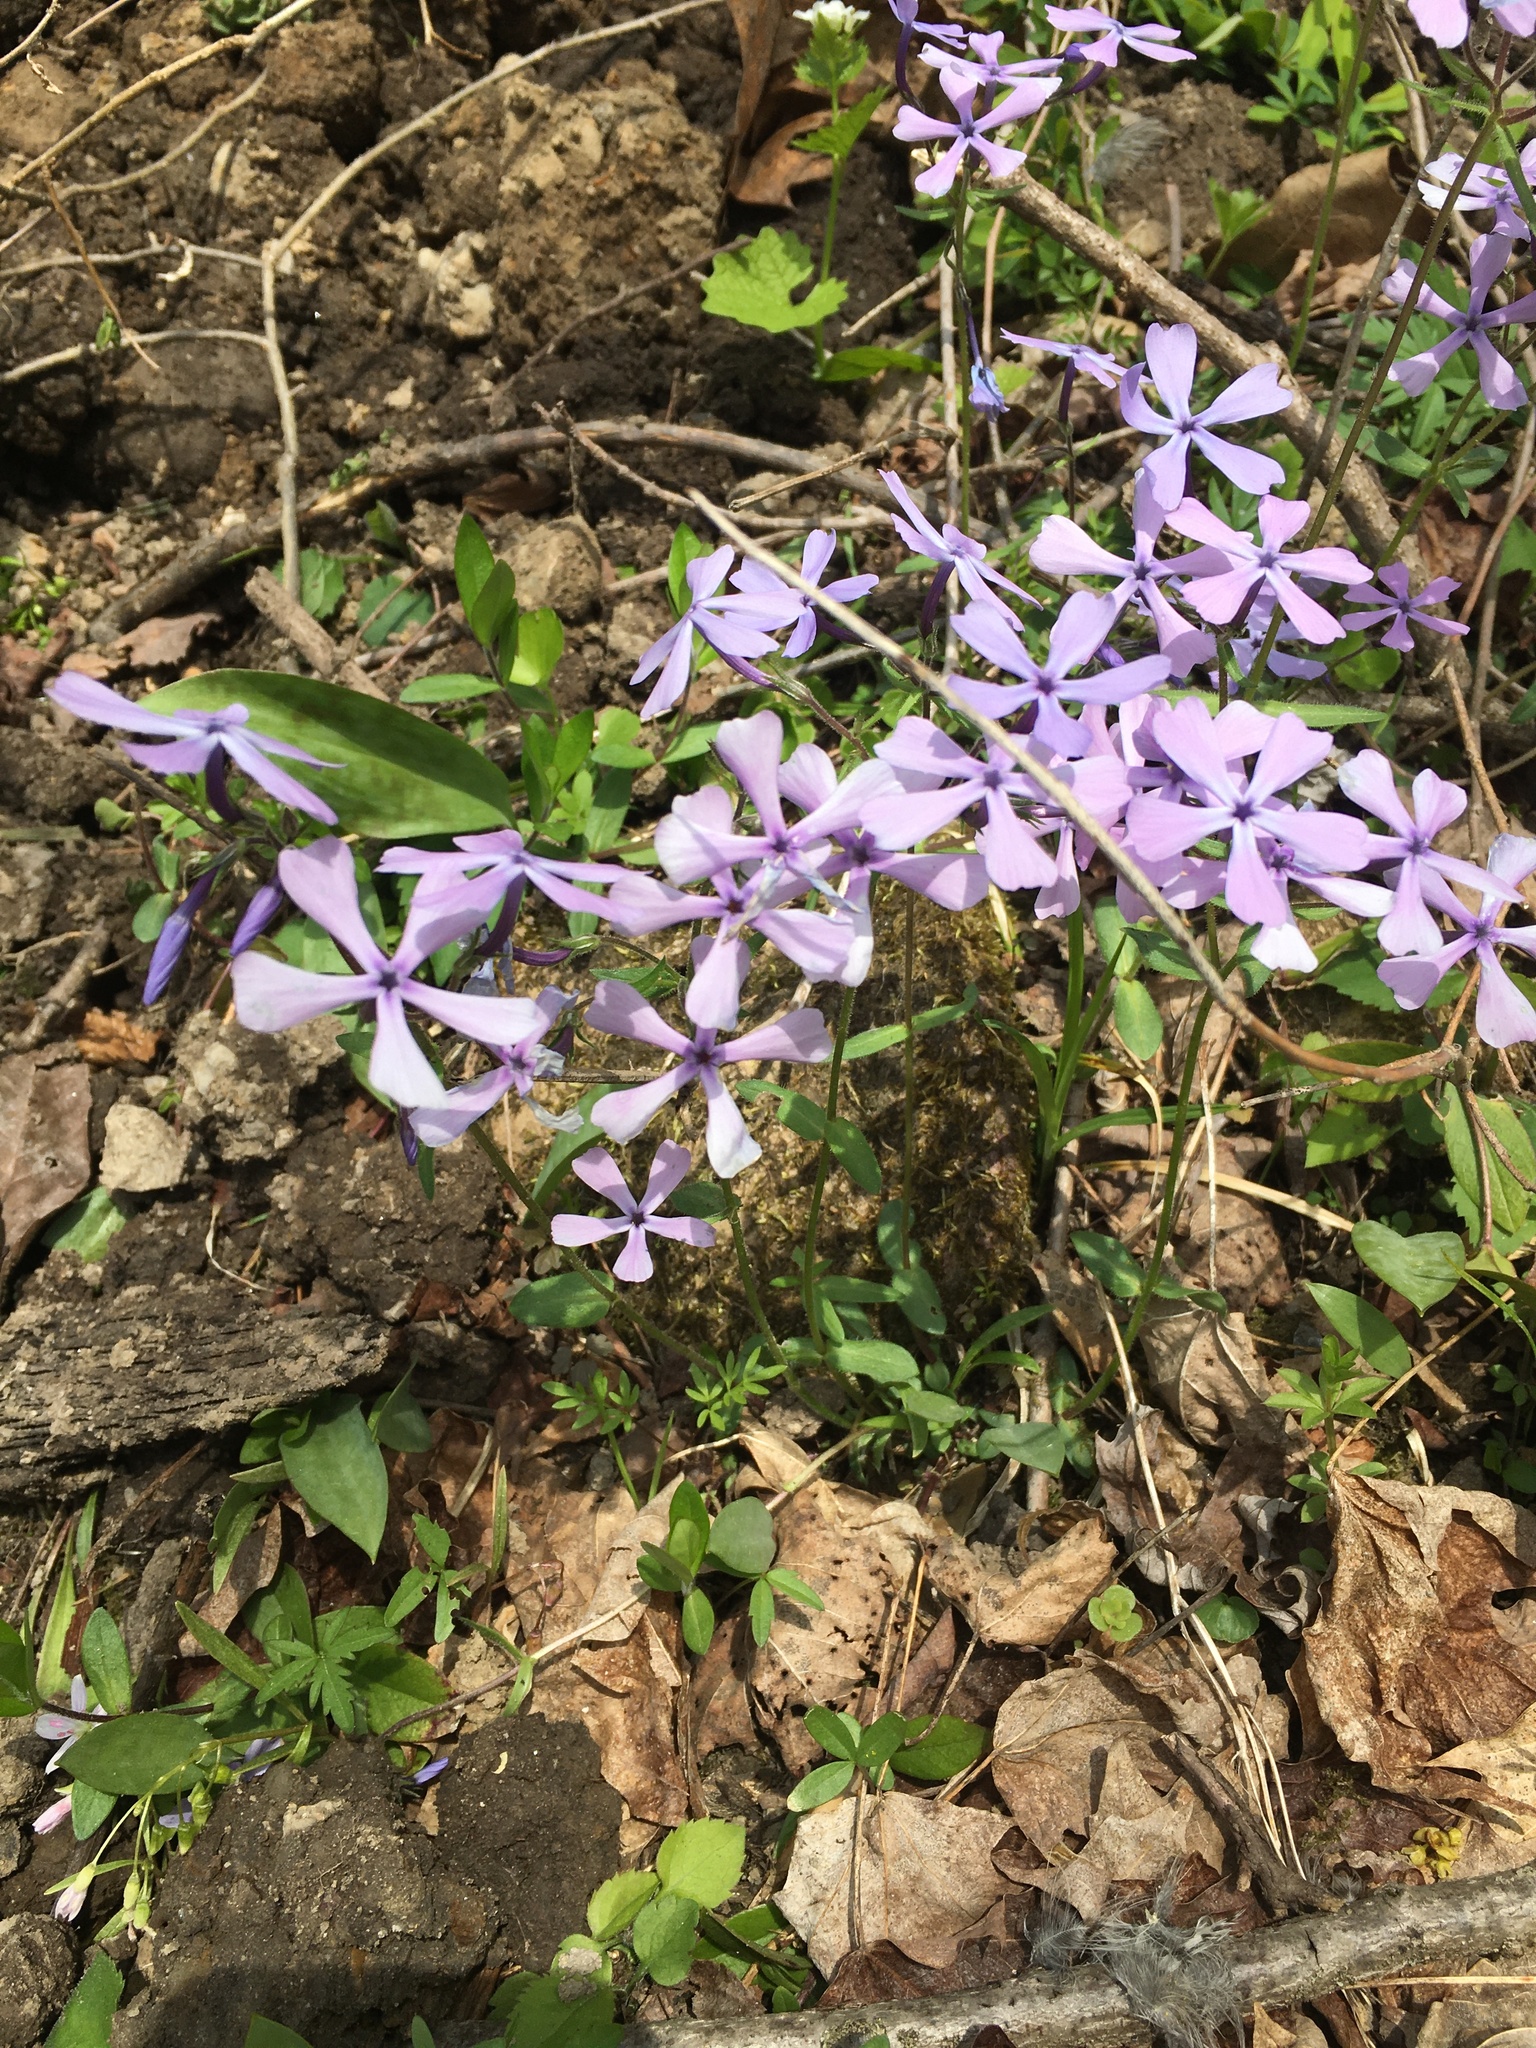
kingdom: Plantae
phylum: Tracheophyta
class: Magnoliopsida
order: Ericales
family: Polemoniaceae
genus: Phlox
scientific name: Phlox divaricata
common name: Blue phlox
